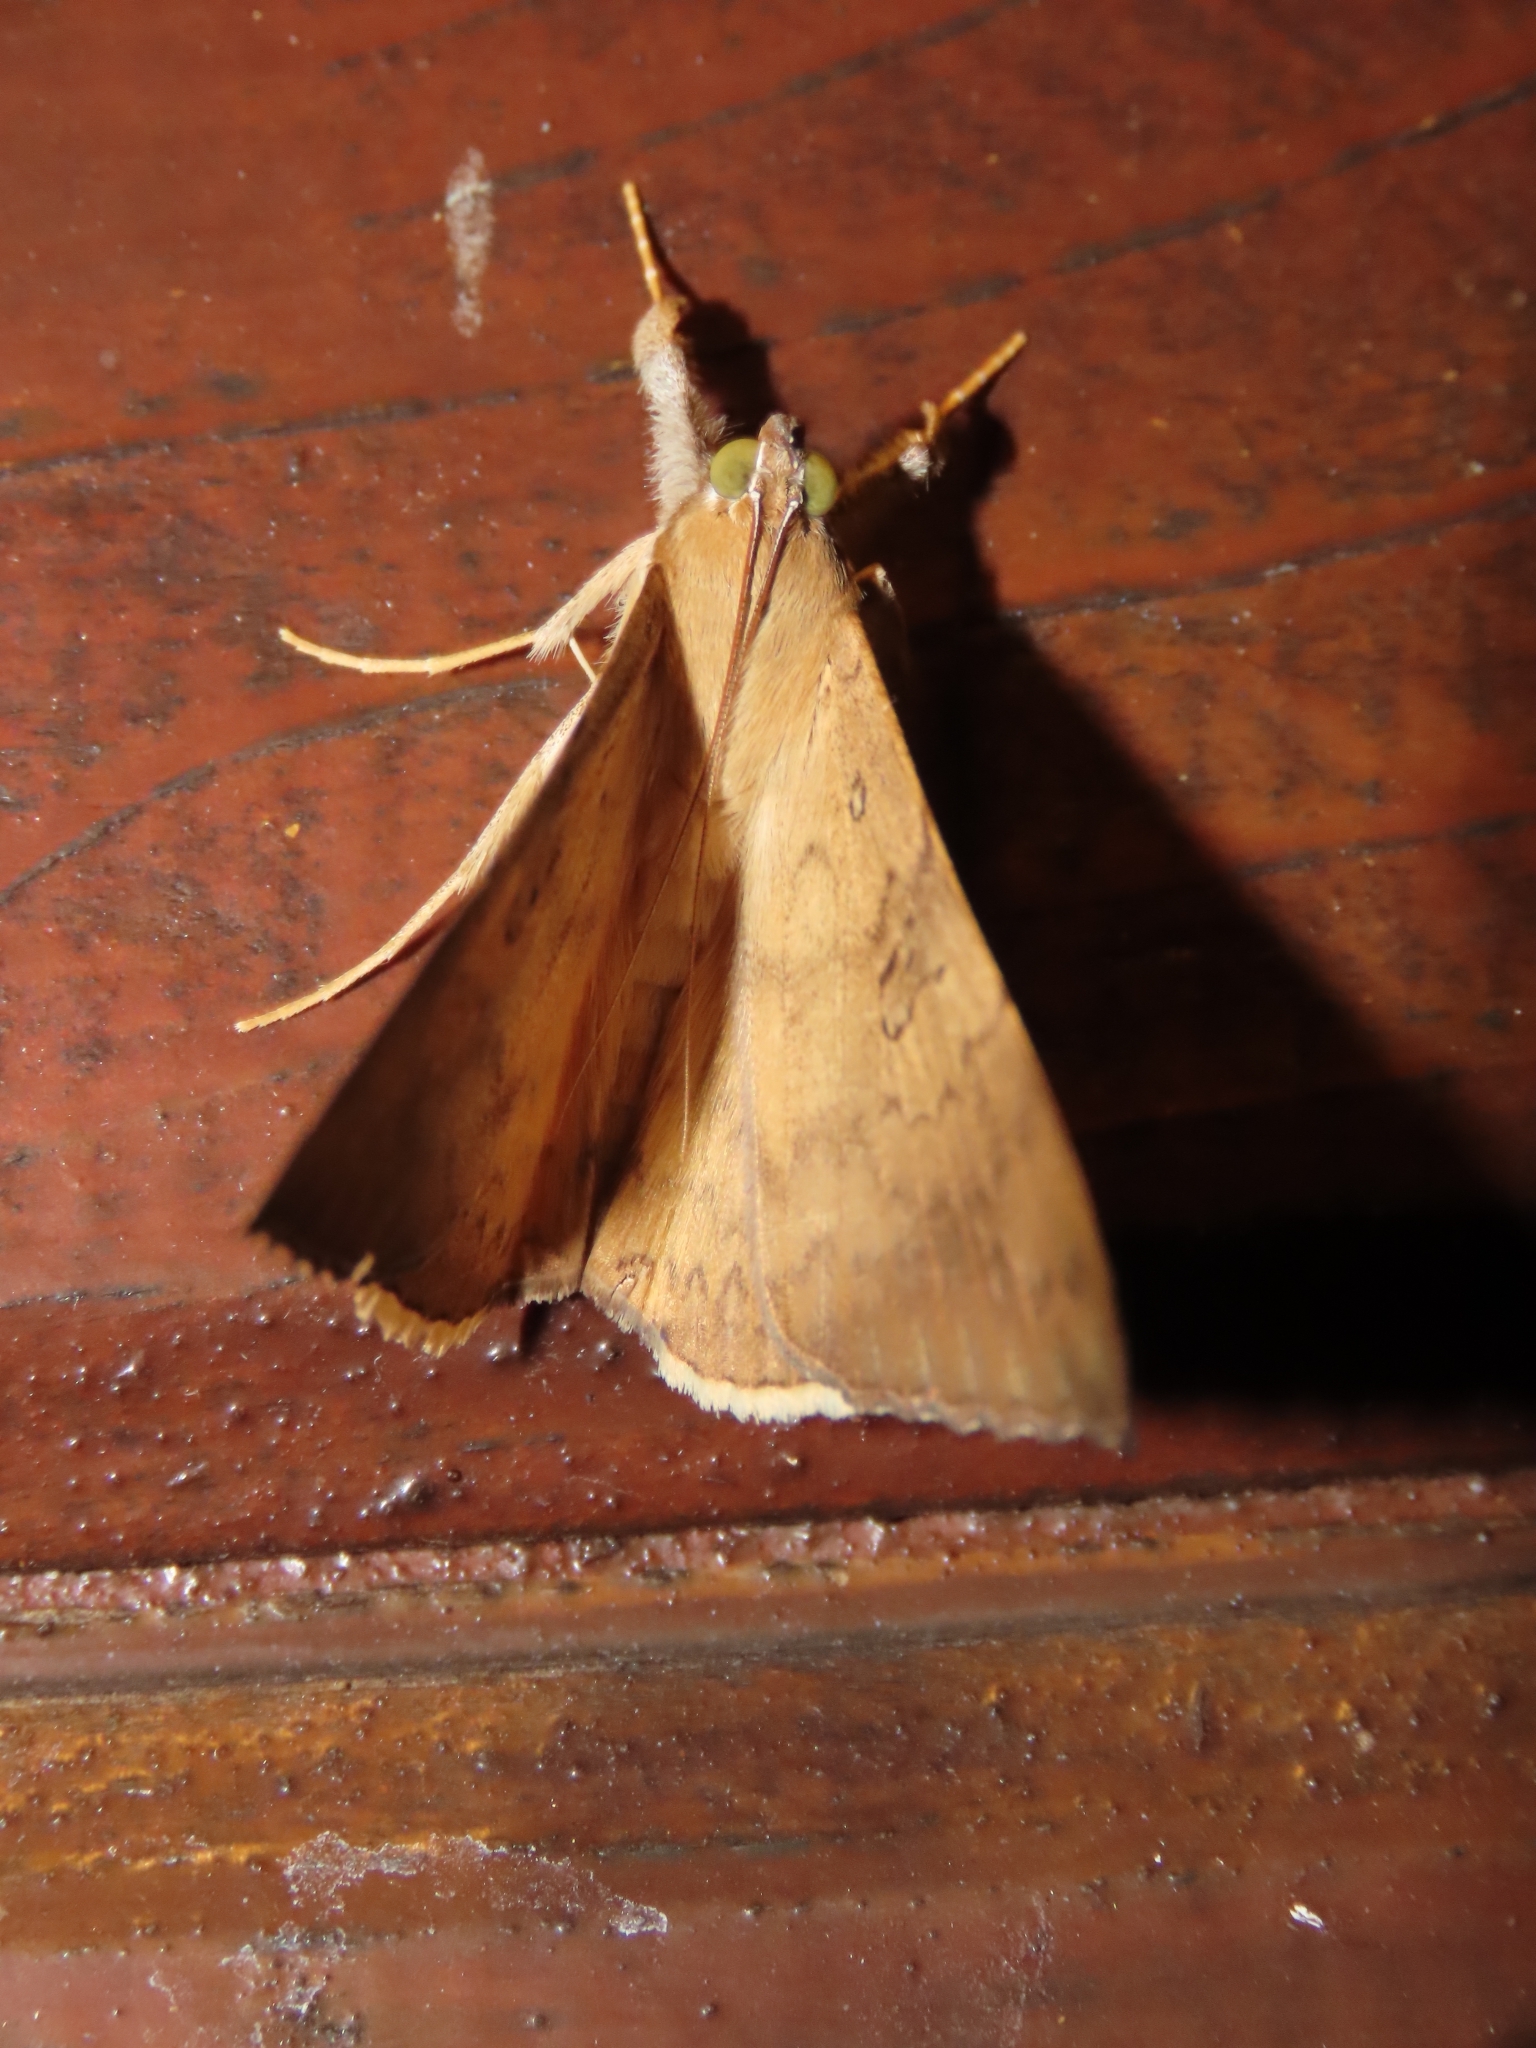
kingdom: Animalia
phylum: Arthropoda
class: Insecta
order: Lepidoptera
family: Erebidae
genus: Oxyodes
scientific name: Oxyodes scrobiculata
